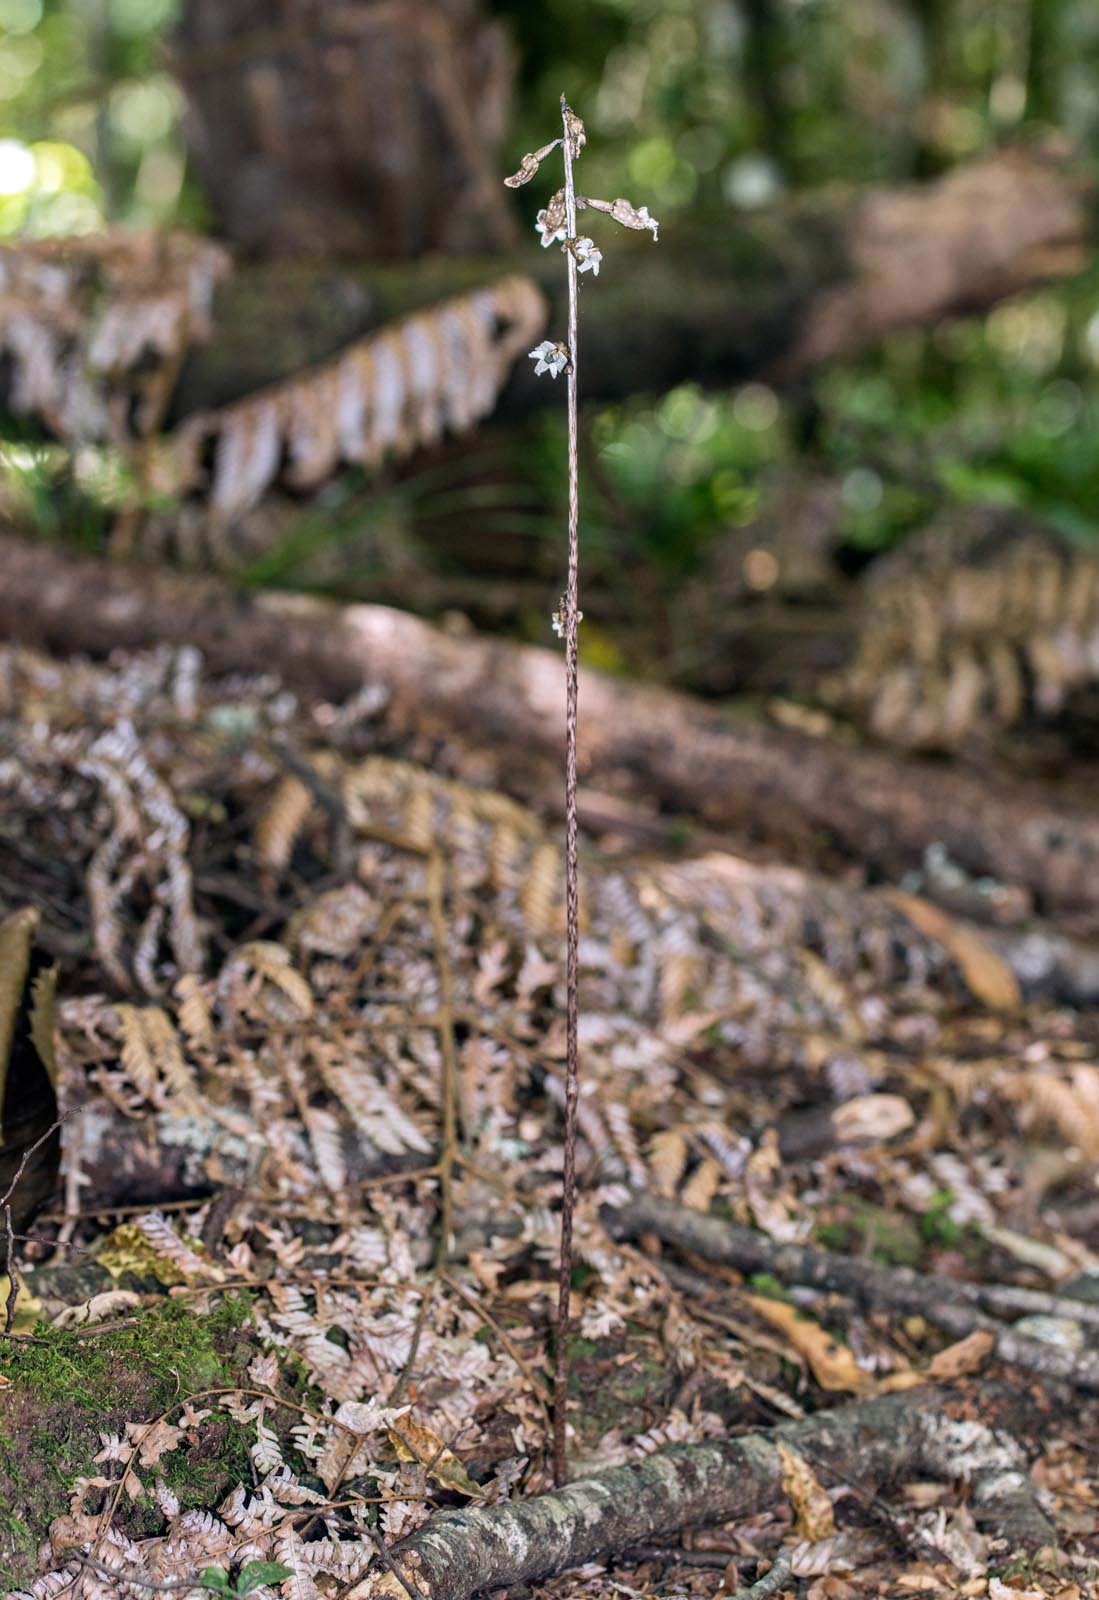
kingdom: Plantae
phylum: Tracheophyta
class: Liliopsida
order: Asparagales
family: Orchidaceae
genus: Gastrodia
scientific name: Gastrodia cunninghamii
